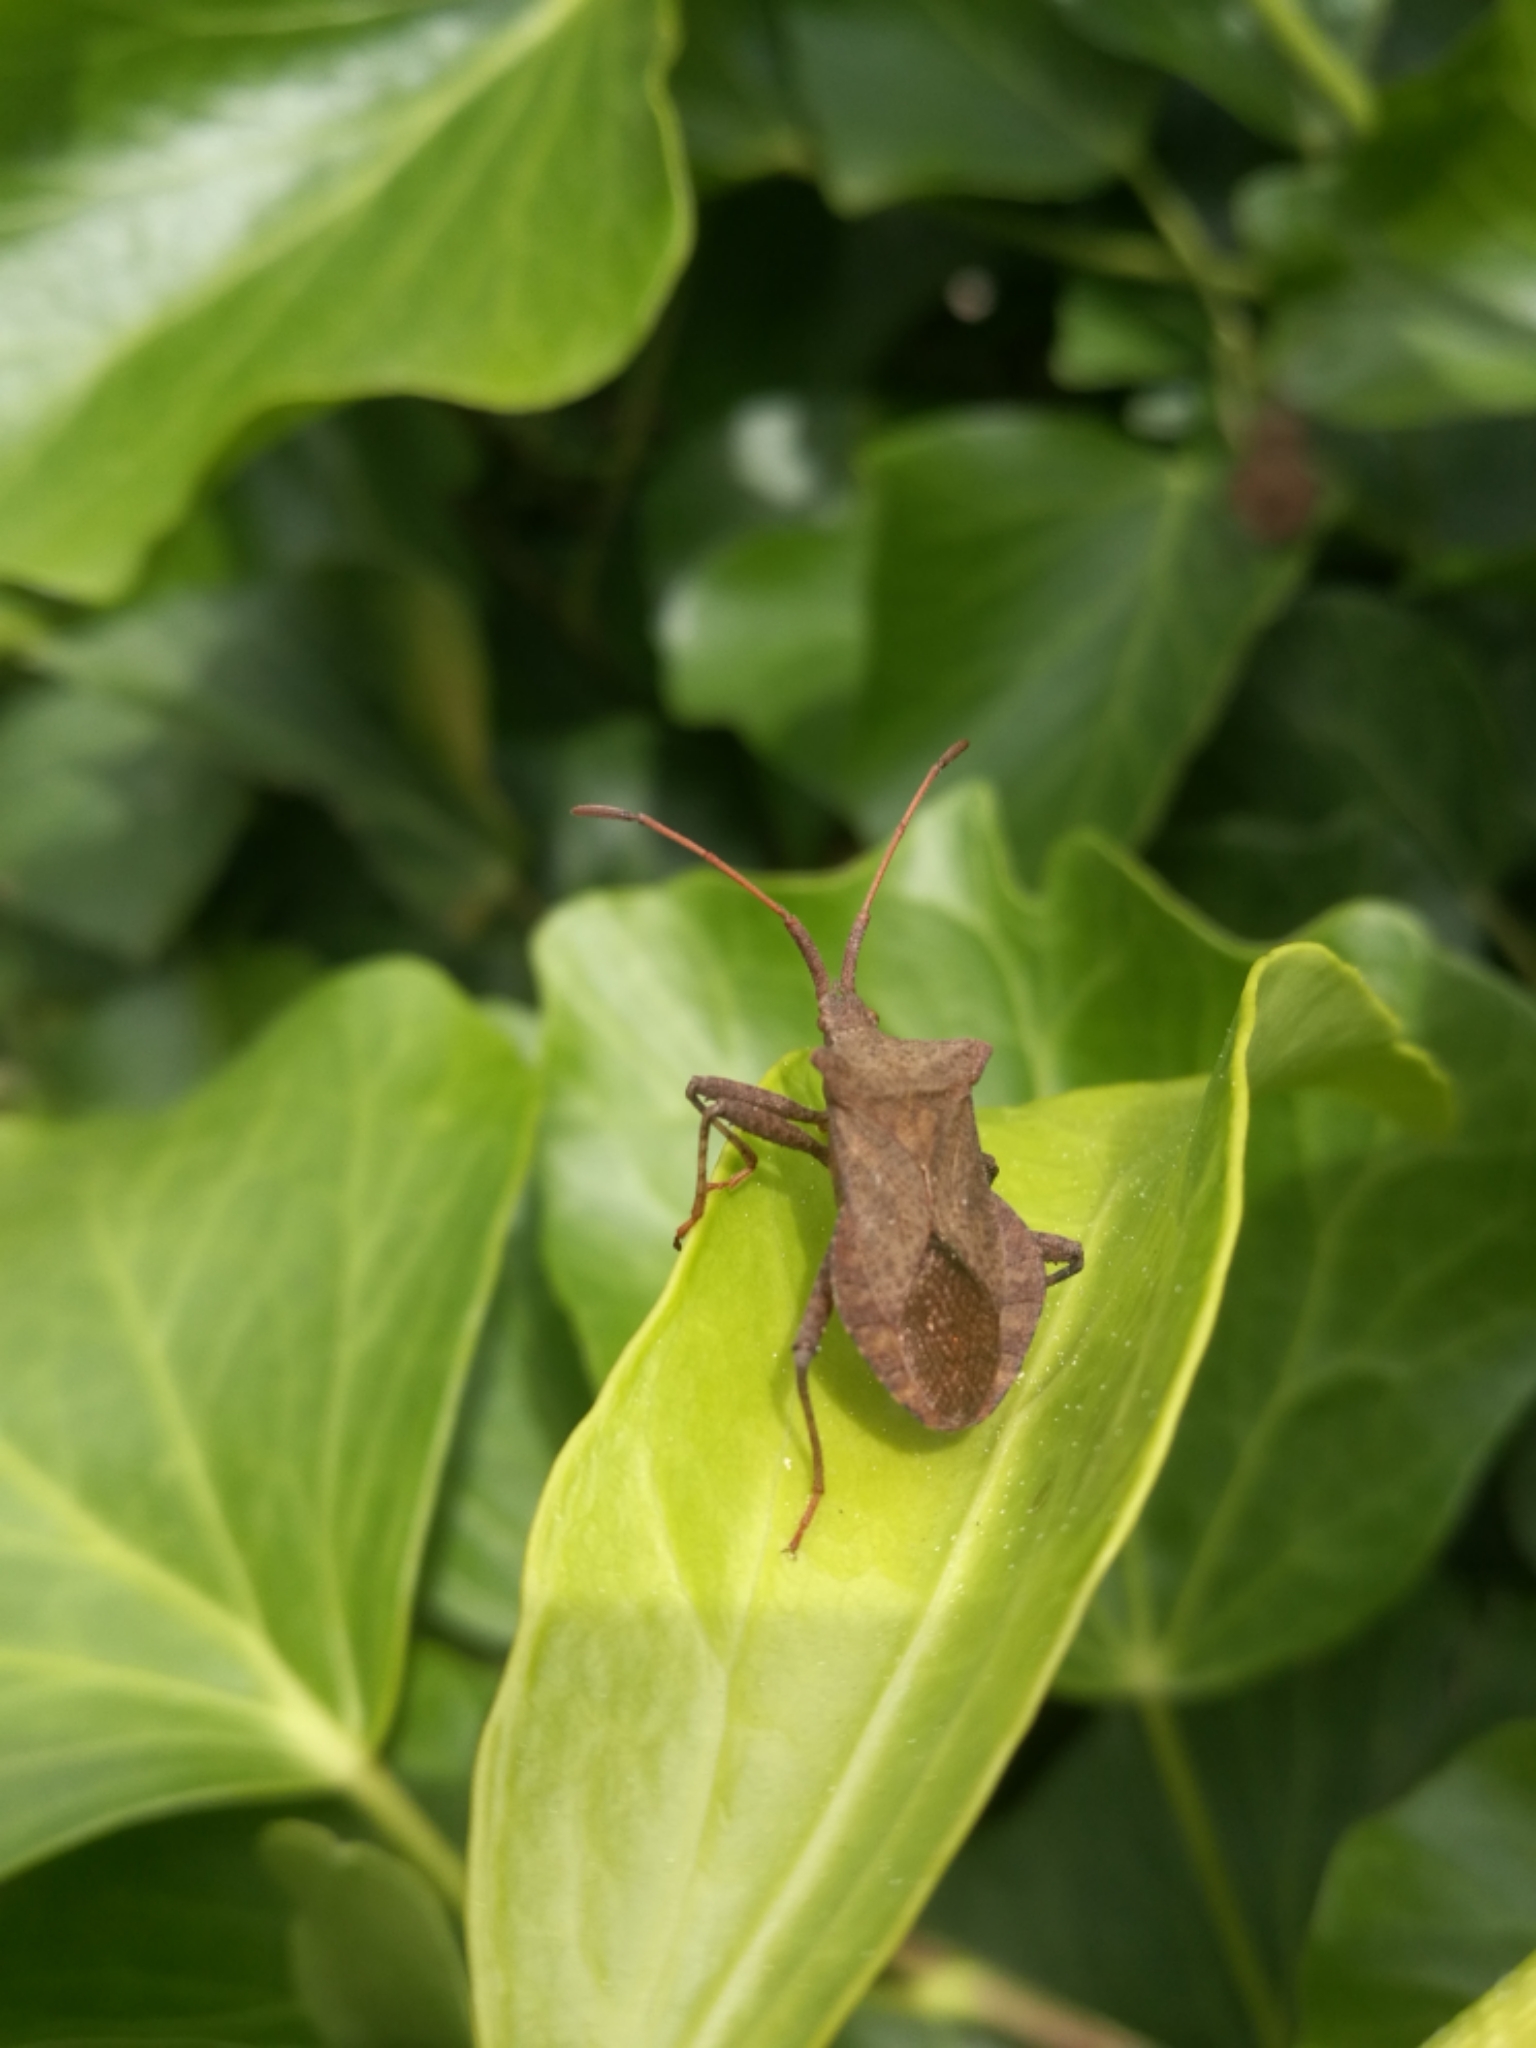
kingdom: Animalia
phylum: Arthropoda
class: Insecta
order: Hemiptera
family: Coreidae
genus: Coreus
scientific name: Coreus marginatus
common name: Dock bug
